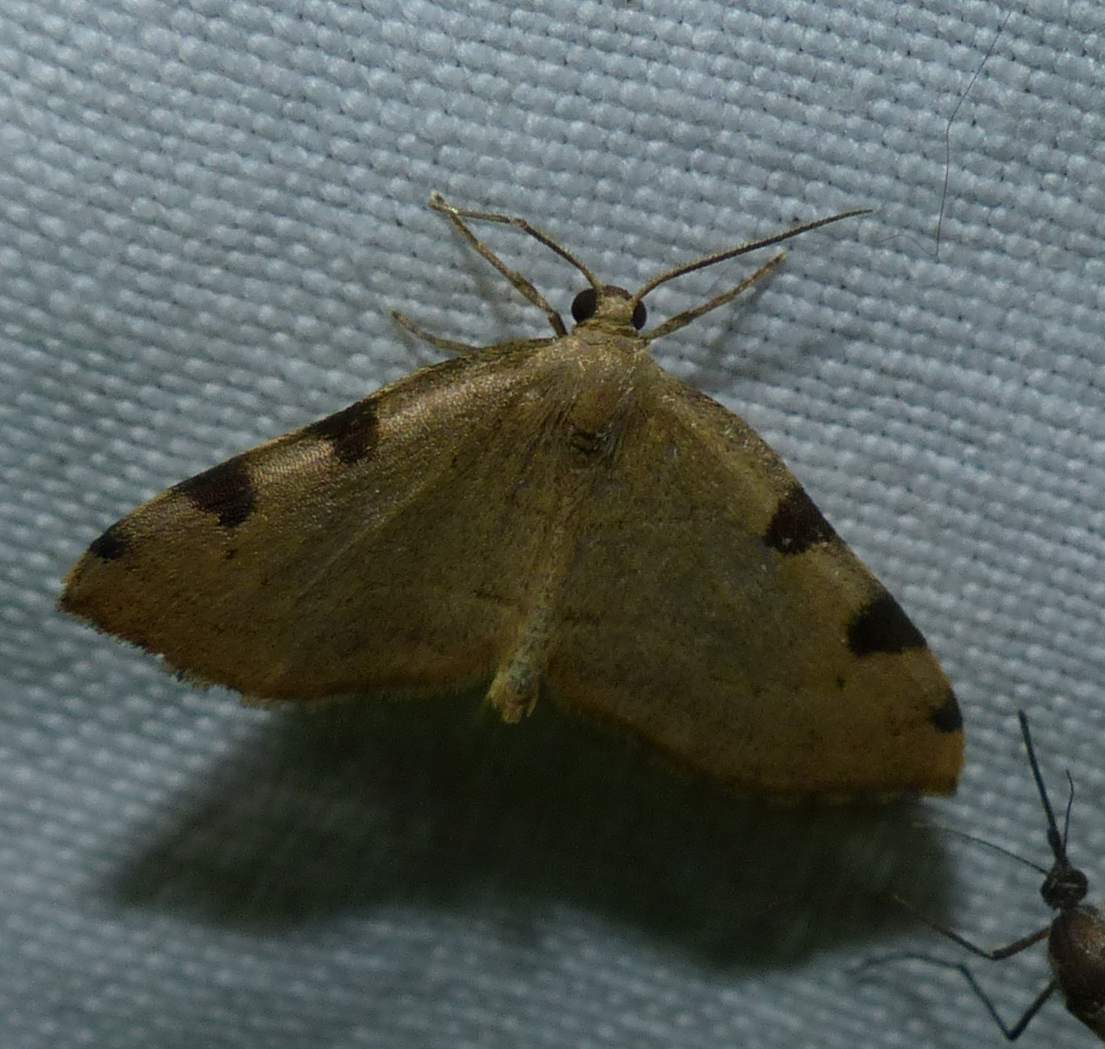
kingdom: Animalia
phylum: Arthropoda
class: Insecta
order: Lepidoptera
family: Geometridae
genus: Heterophleps
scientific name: Heterophleps triguttaria
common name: Three-spotted fillip
